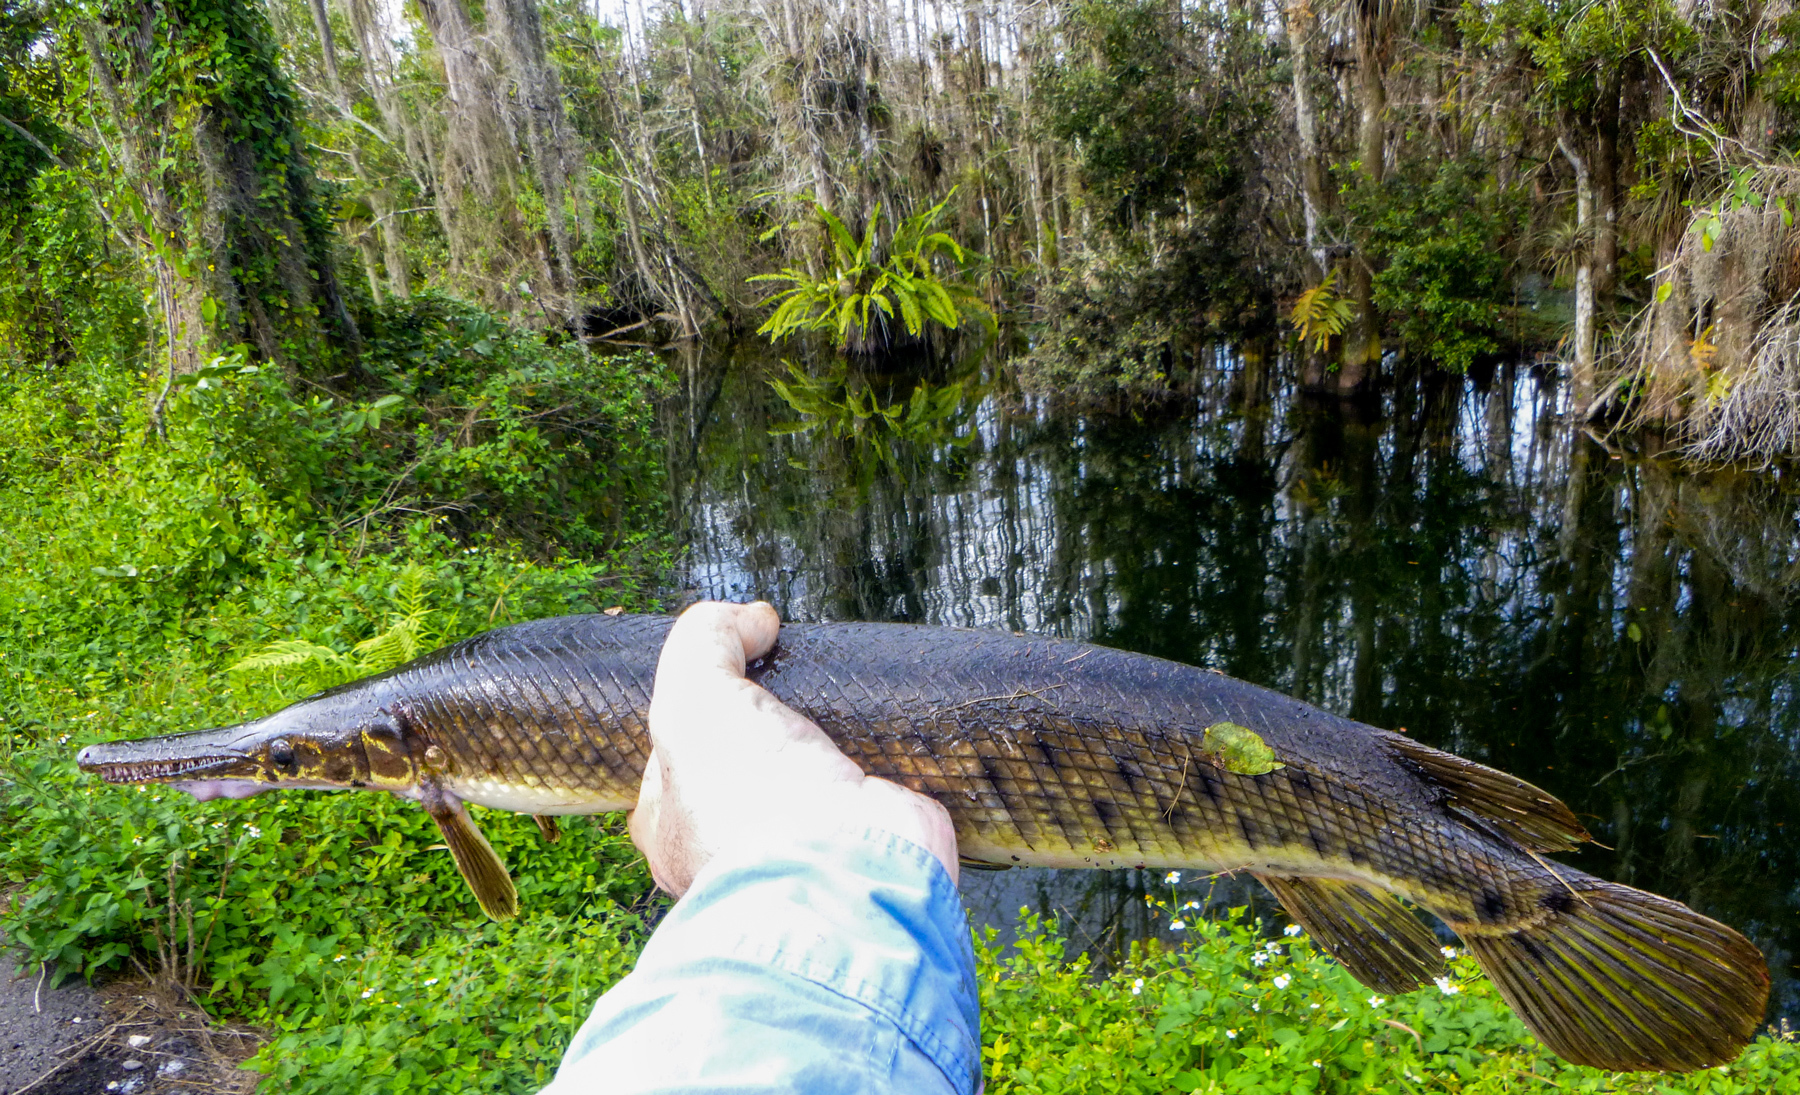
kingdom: Animalia
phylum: Chordata
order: Lepisosteiformes
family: Lepisosteidae
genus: Lepisosteus
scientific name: Lepisosteus platyrhincus
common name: Florida gar
